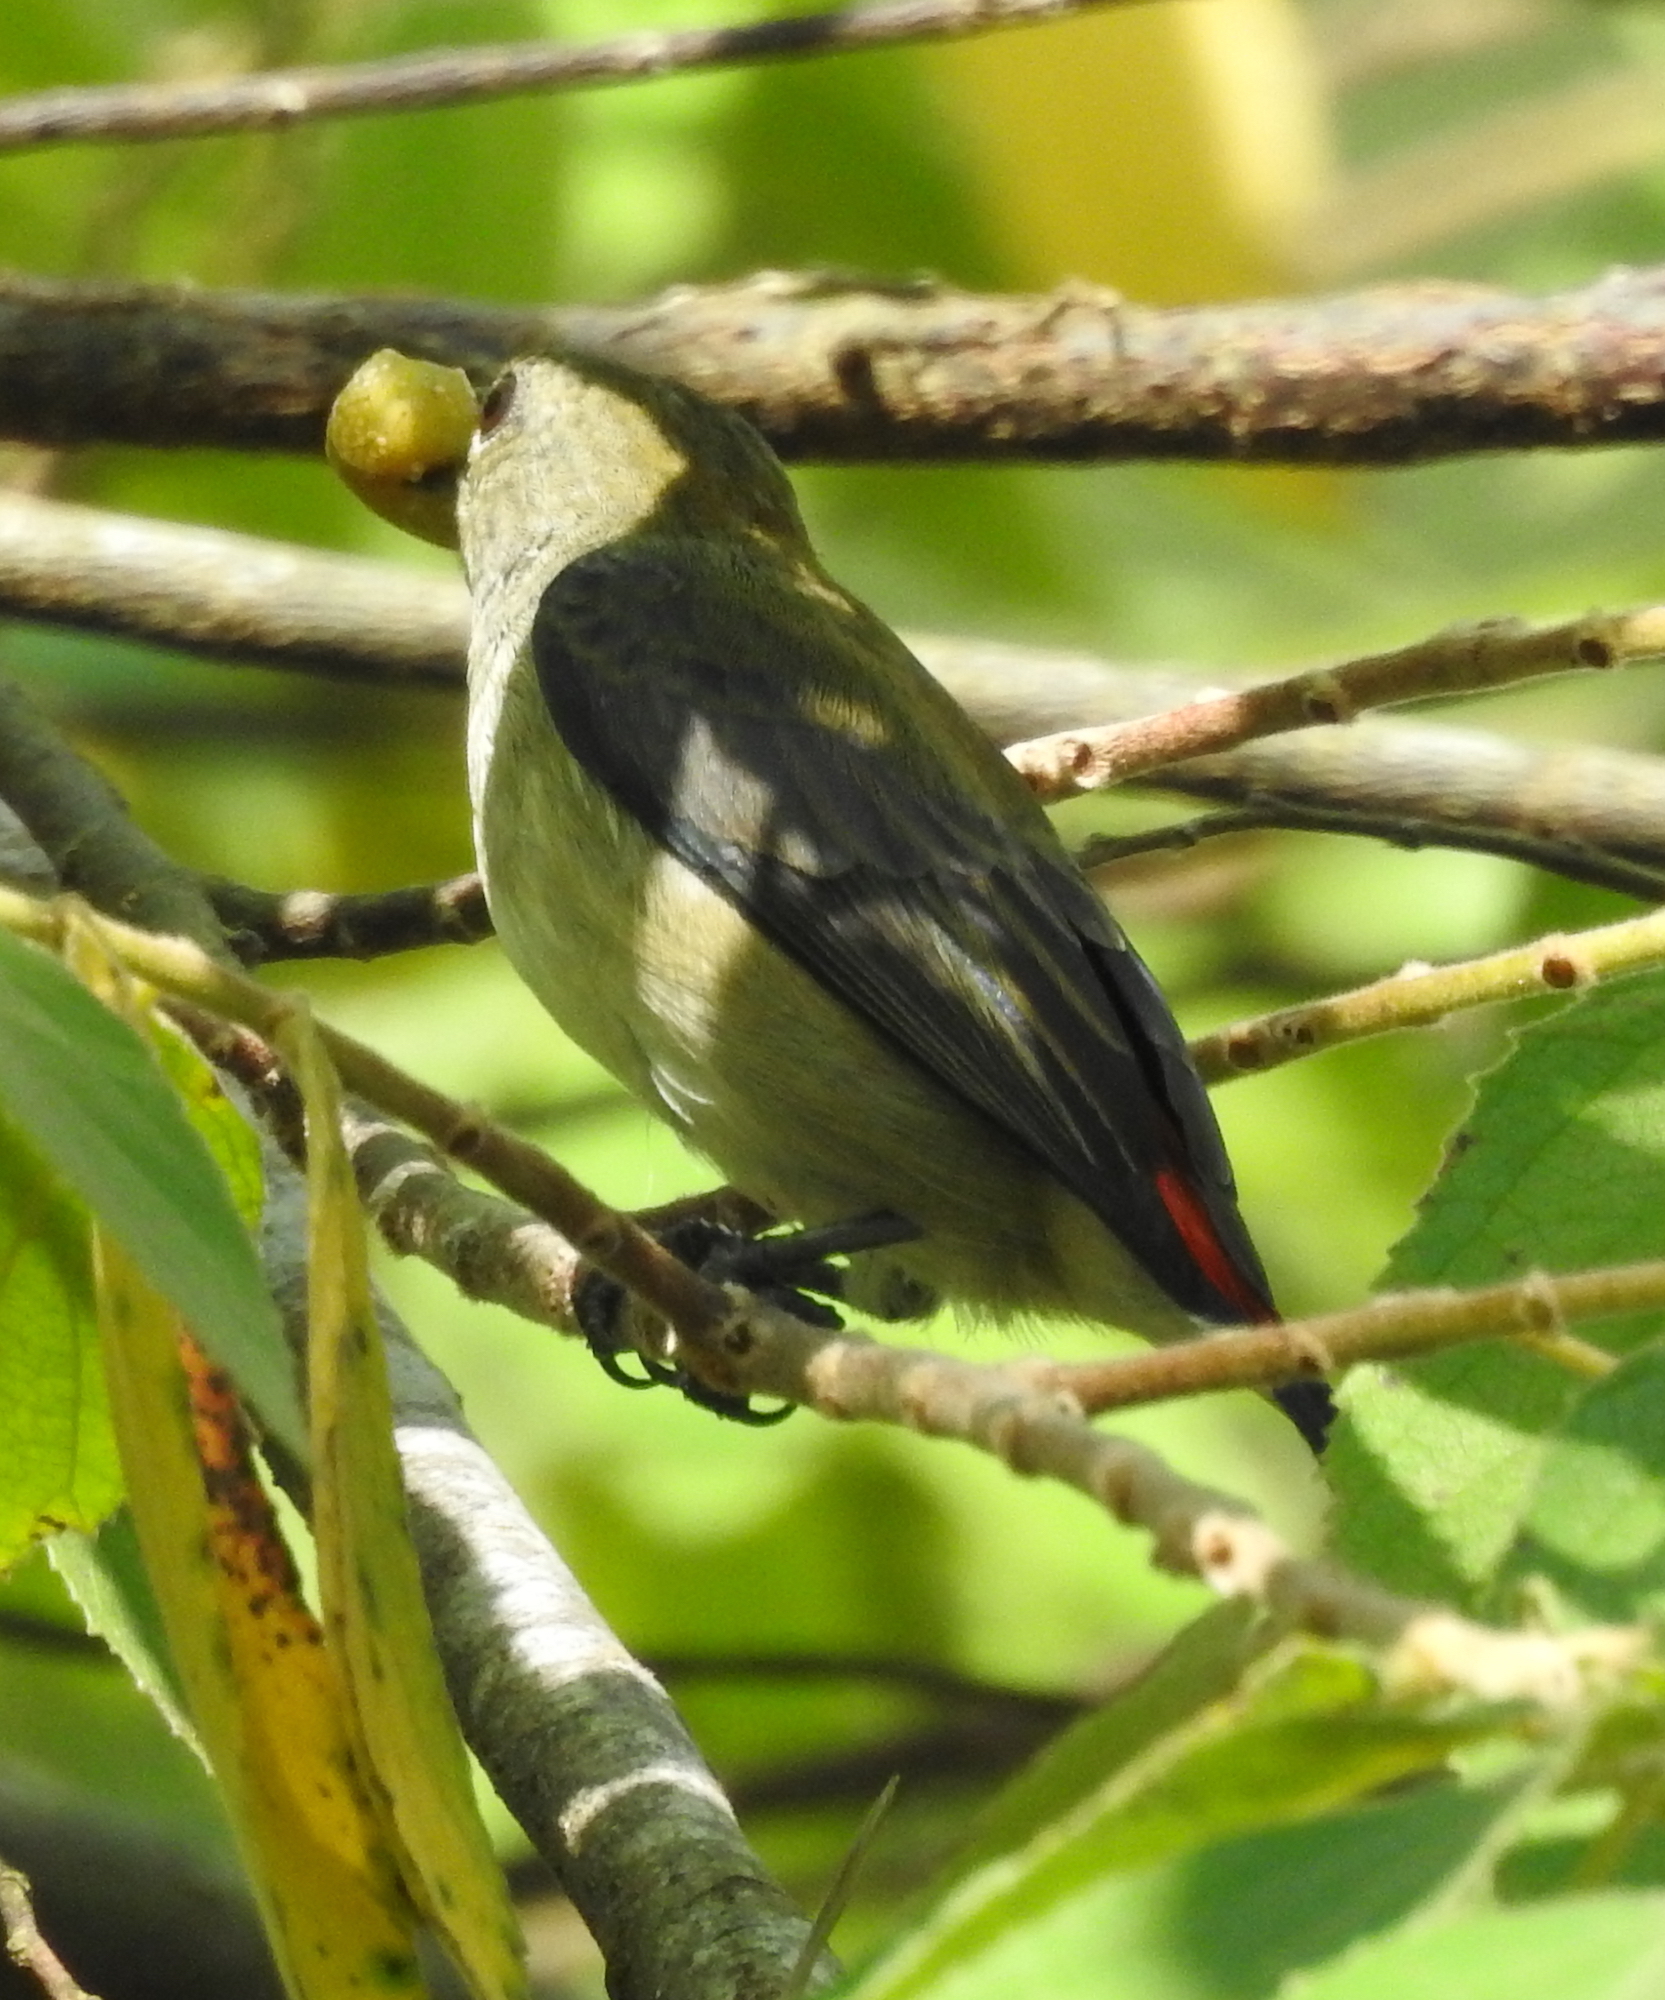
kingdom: Animalia
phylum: Chordata
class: Aves
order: Passeriformes
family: Dicaeidae
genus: Dicaeum
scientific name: Dicaeum cruentatum
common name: Scarlet-backed flowerpecker
